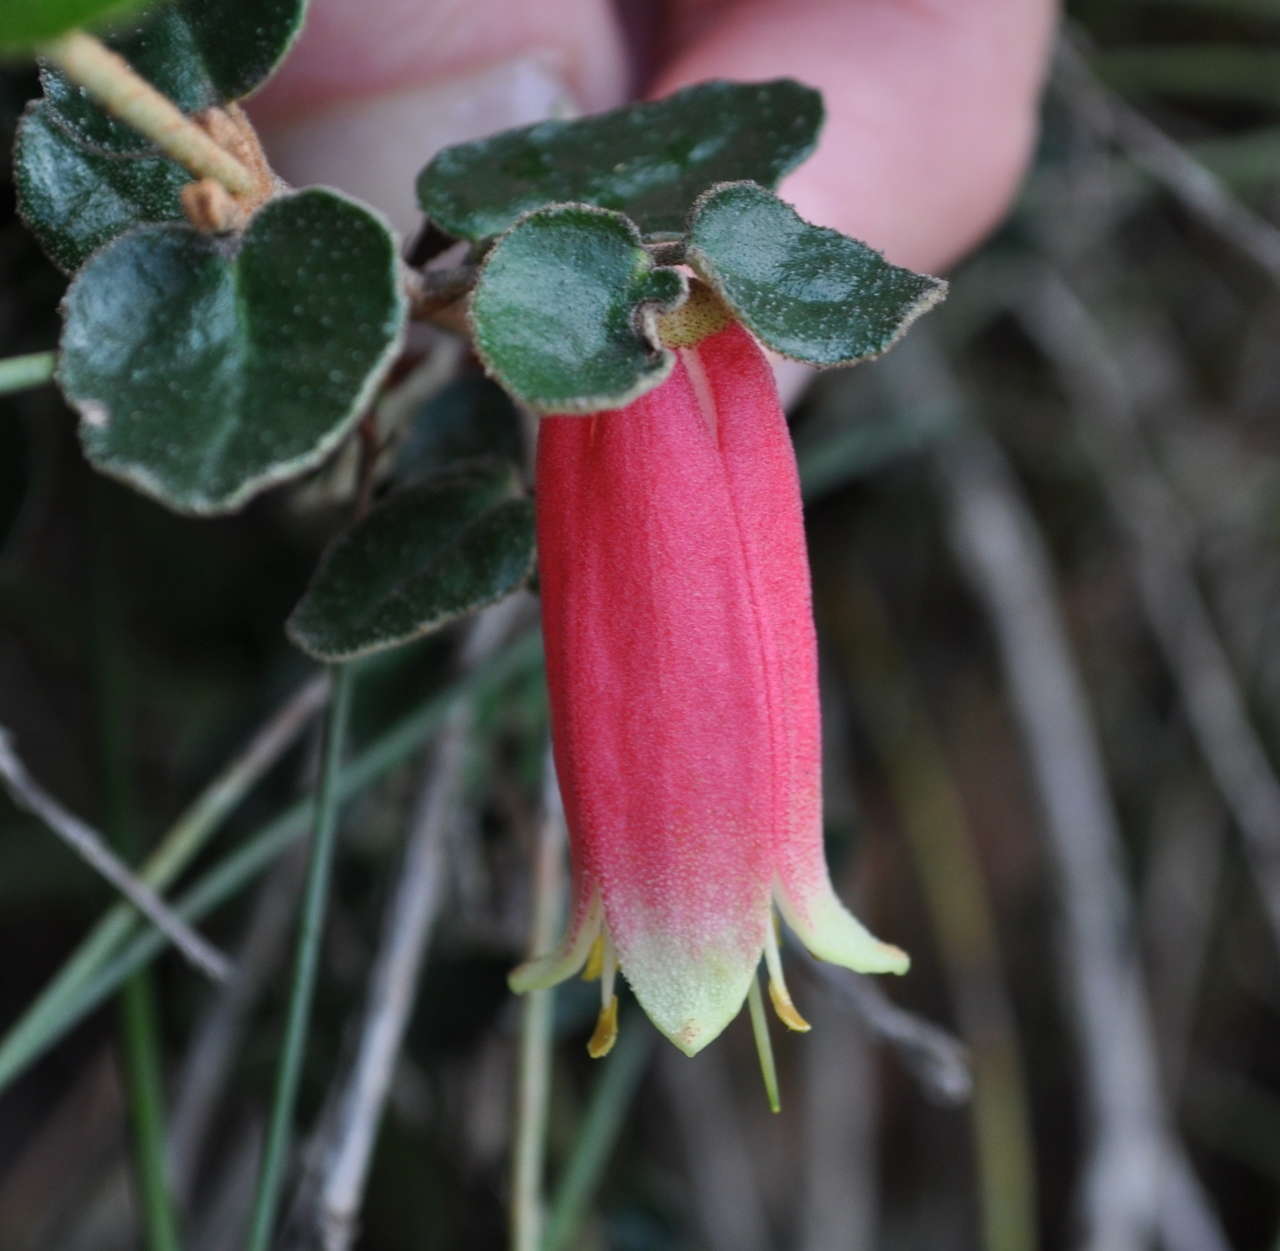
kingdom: Plantae
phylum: Tracheophyta
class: Magnoliopsida
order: Sapindales
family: Rutaceae
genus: Correa
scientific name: Correa reflexa
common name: Common correa
